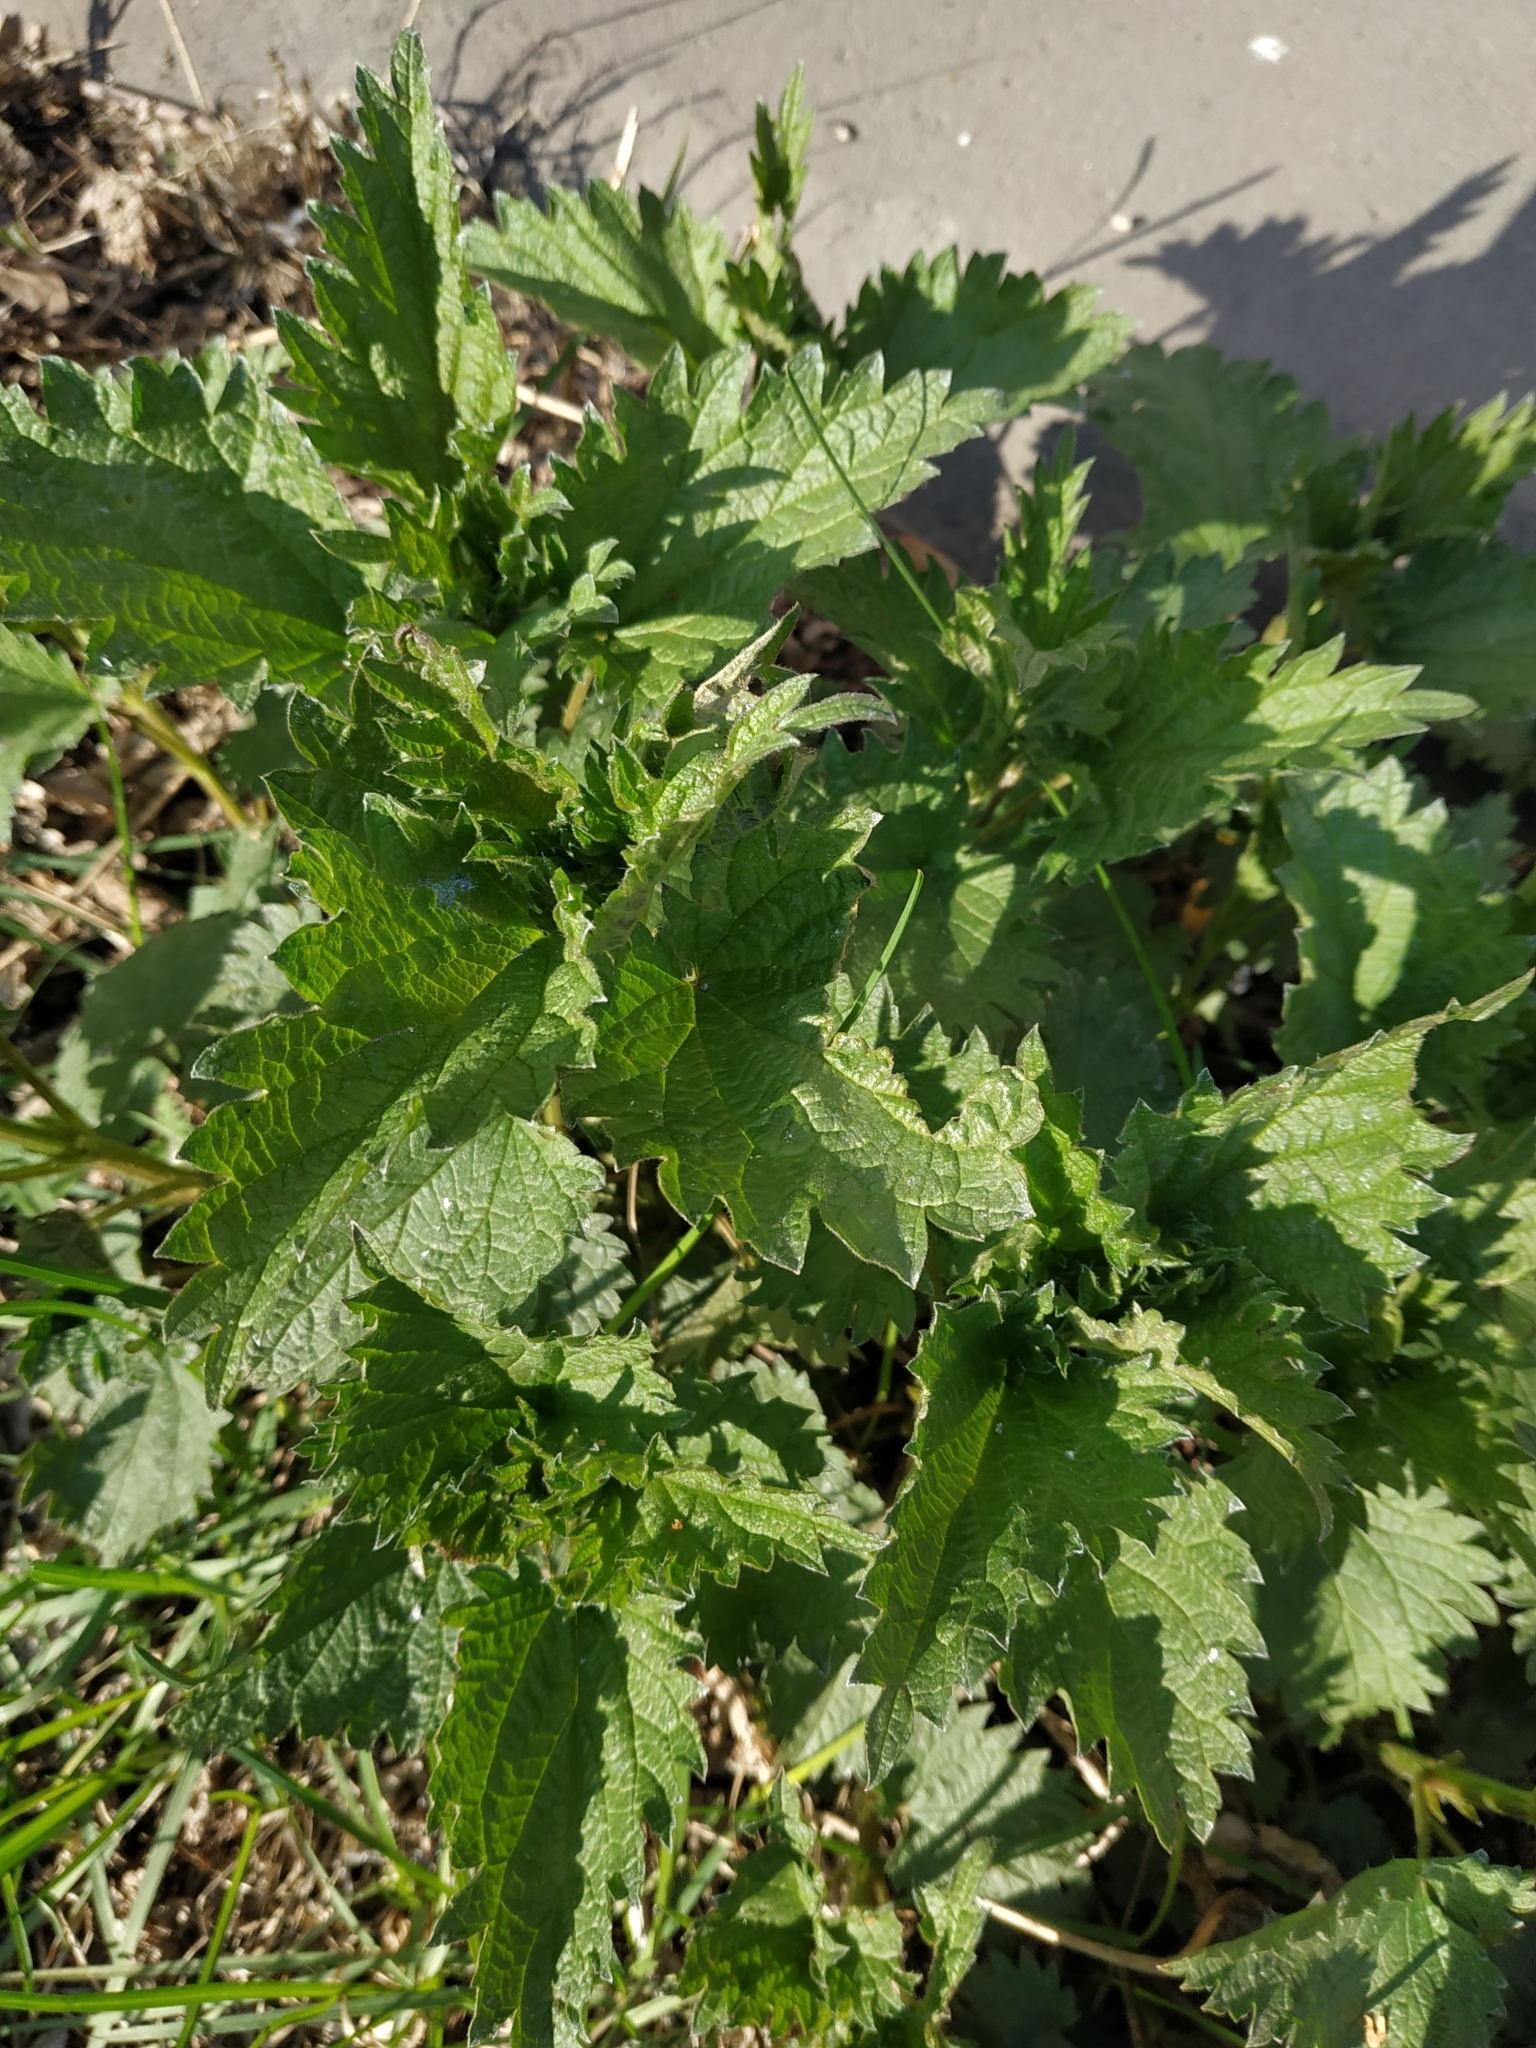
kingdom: Plantae
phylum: Tracheophyta
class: Magnoliopsida
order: Rosales
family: Urticaceae
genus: Urtica
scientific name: Urtica dioica
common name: Common nettle
